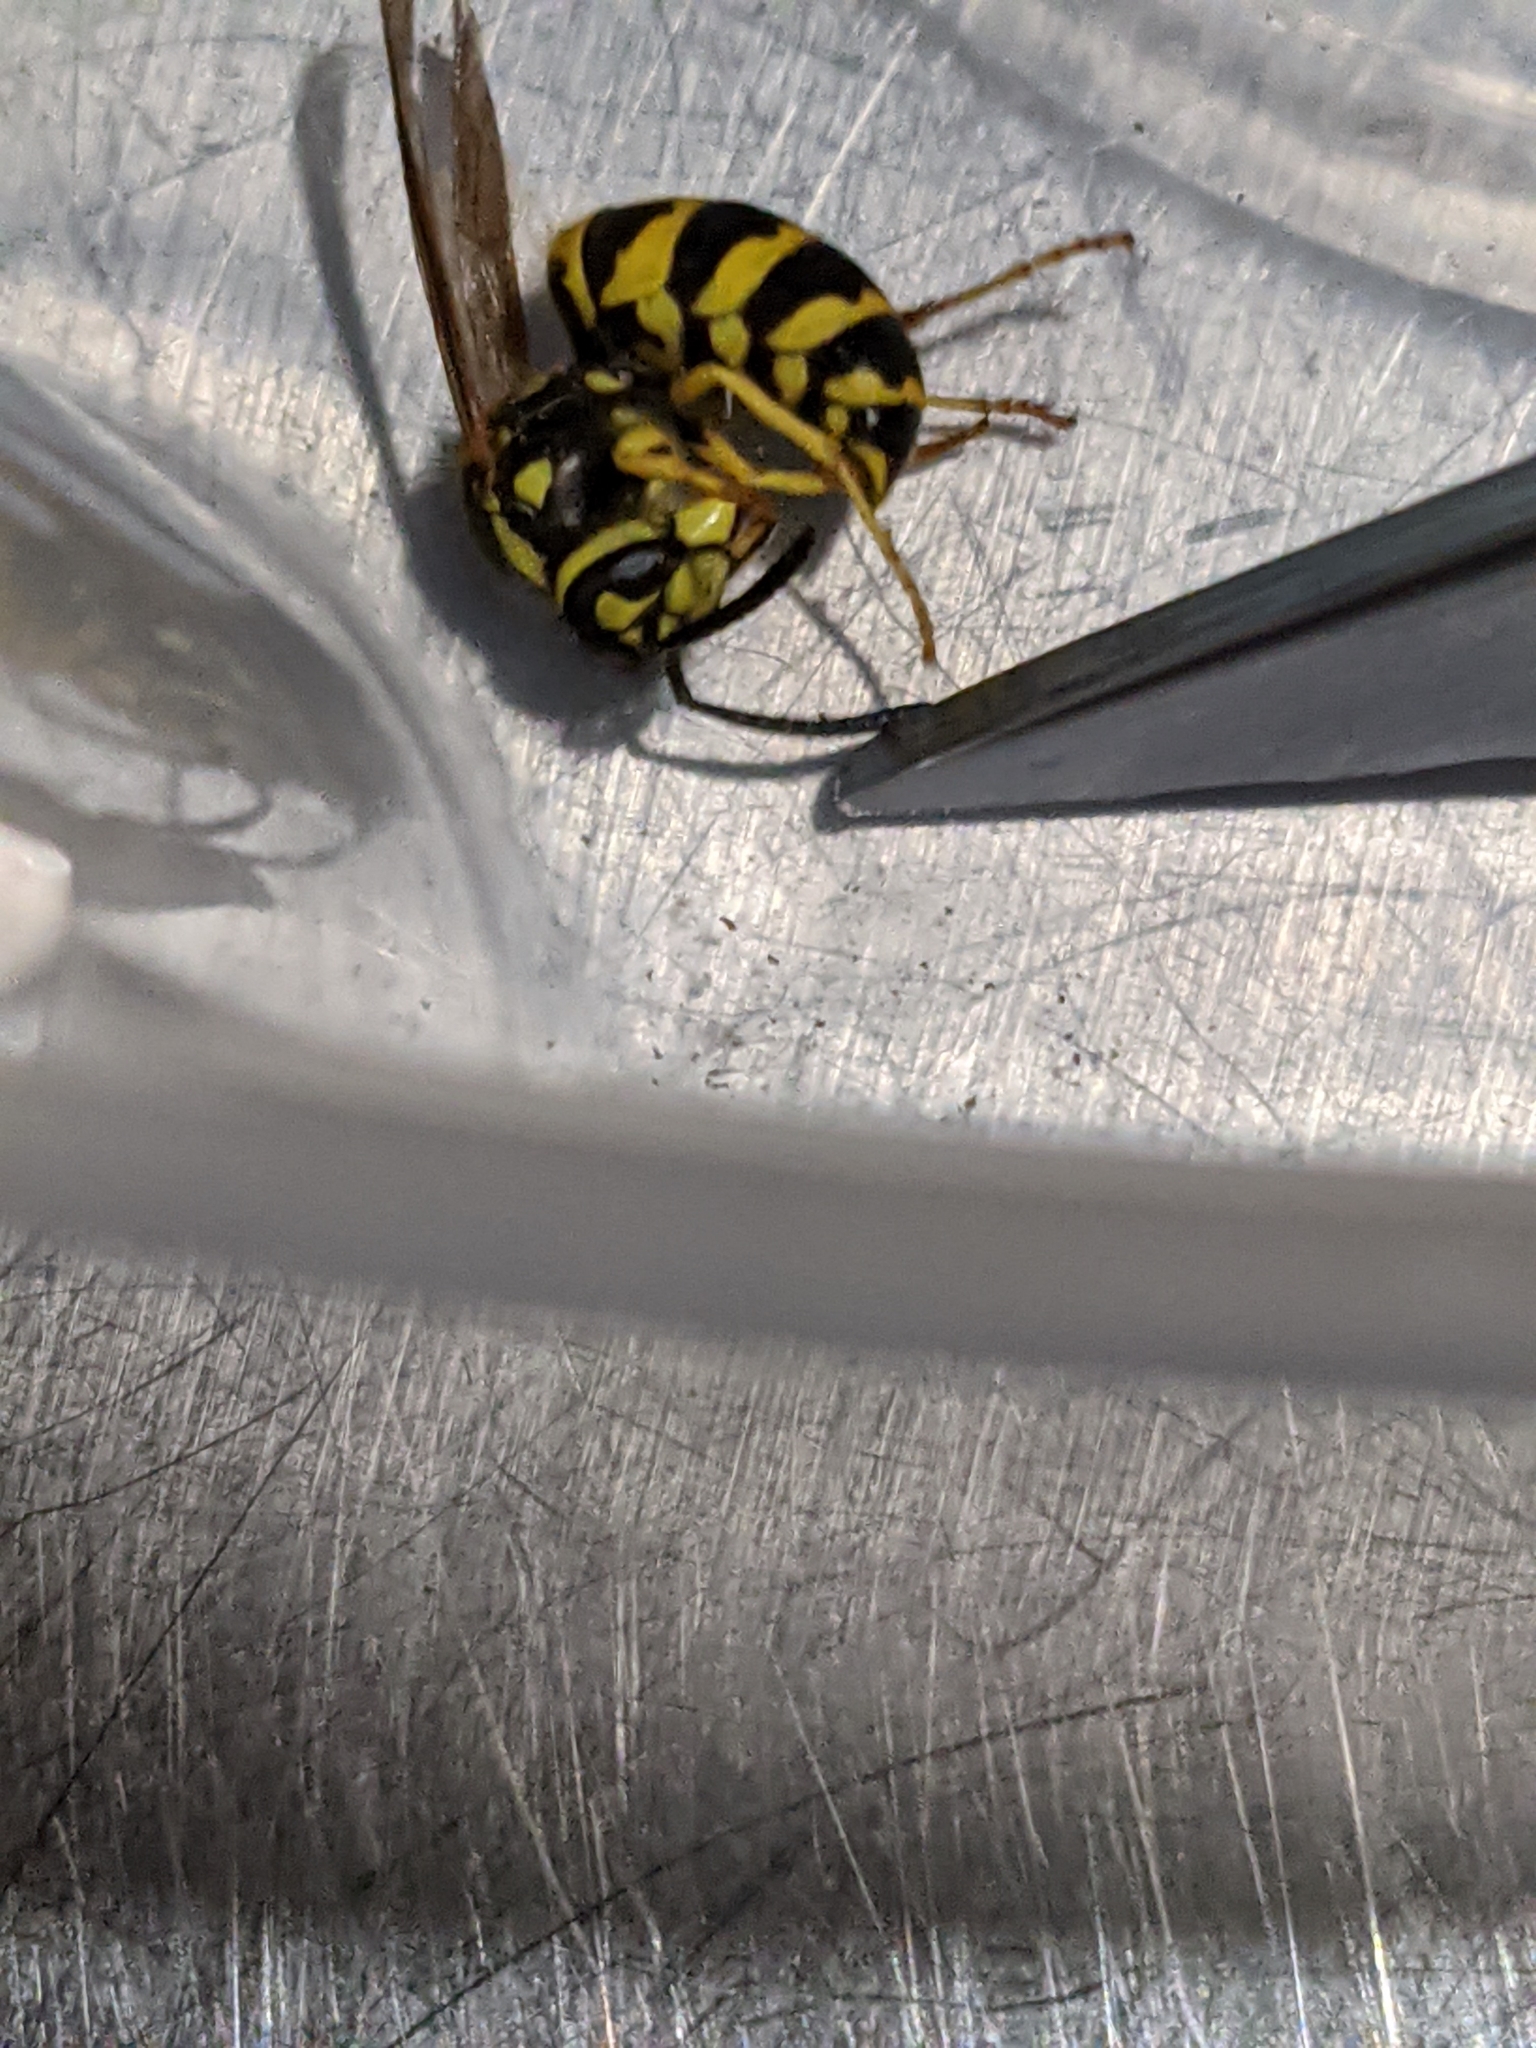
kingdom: Animalia
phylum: Arthropoda
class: Insecta
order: Hymenoptera
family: Vespidae
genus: Vespula
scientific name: Vespula maculifrons
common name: Eastern yellowjacket
